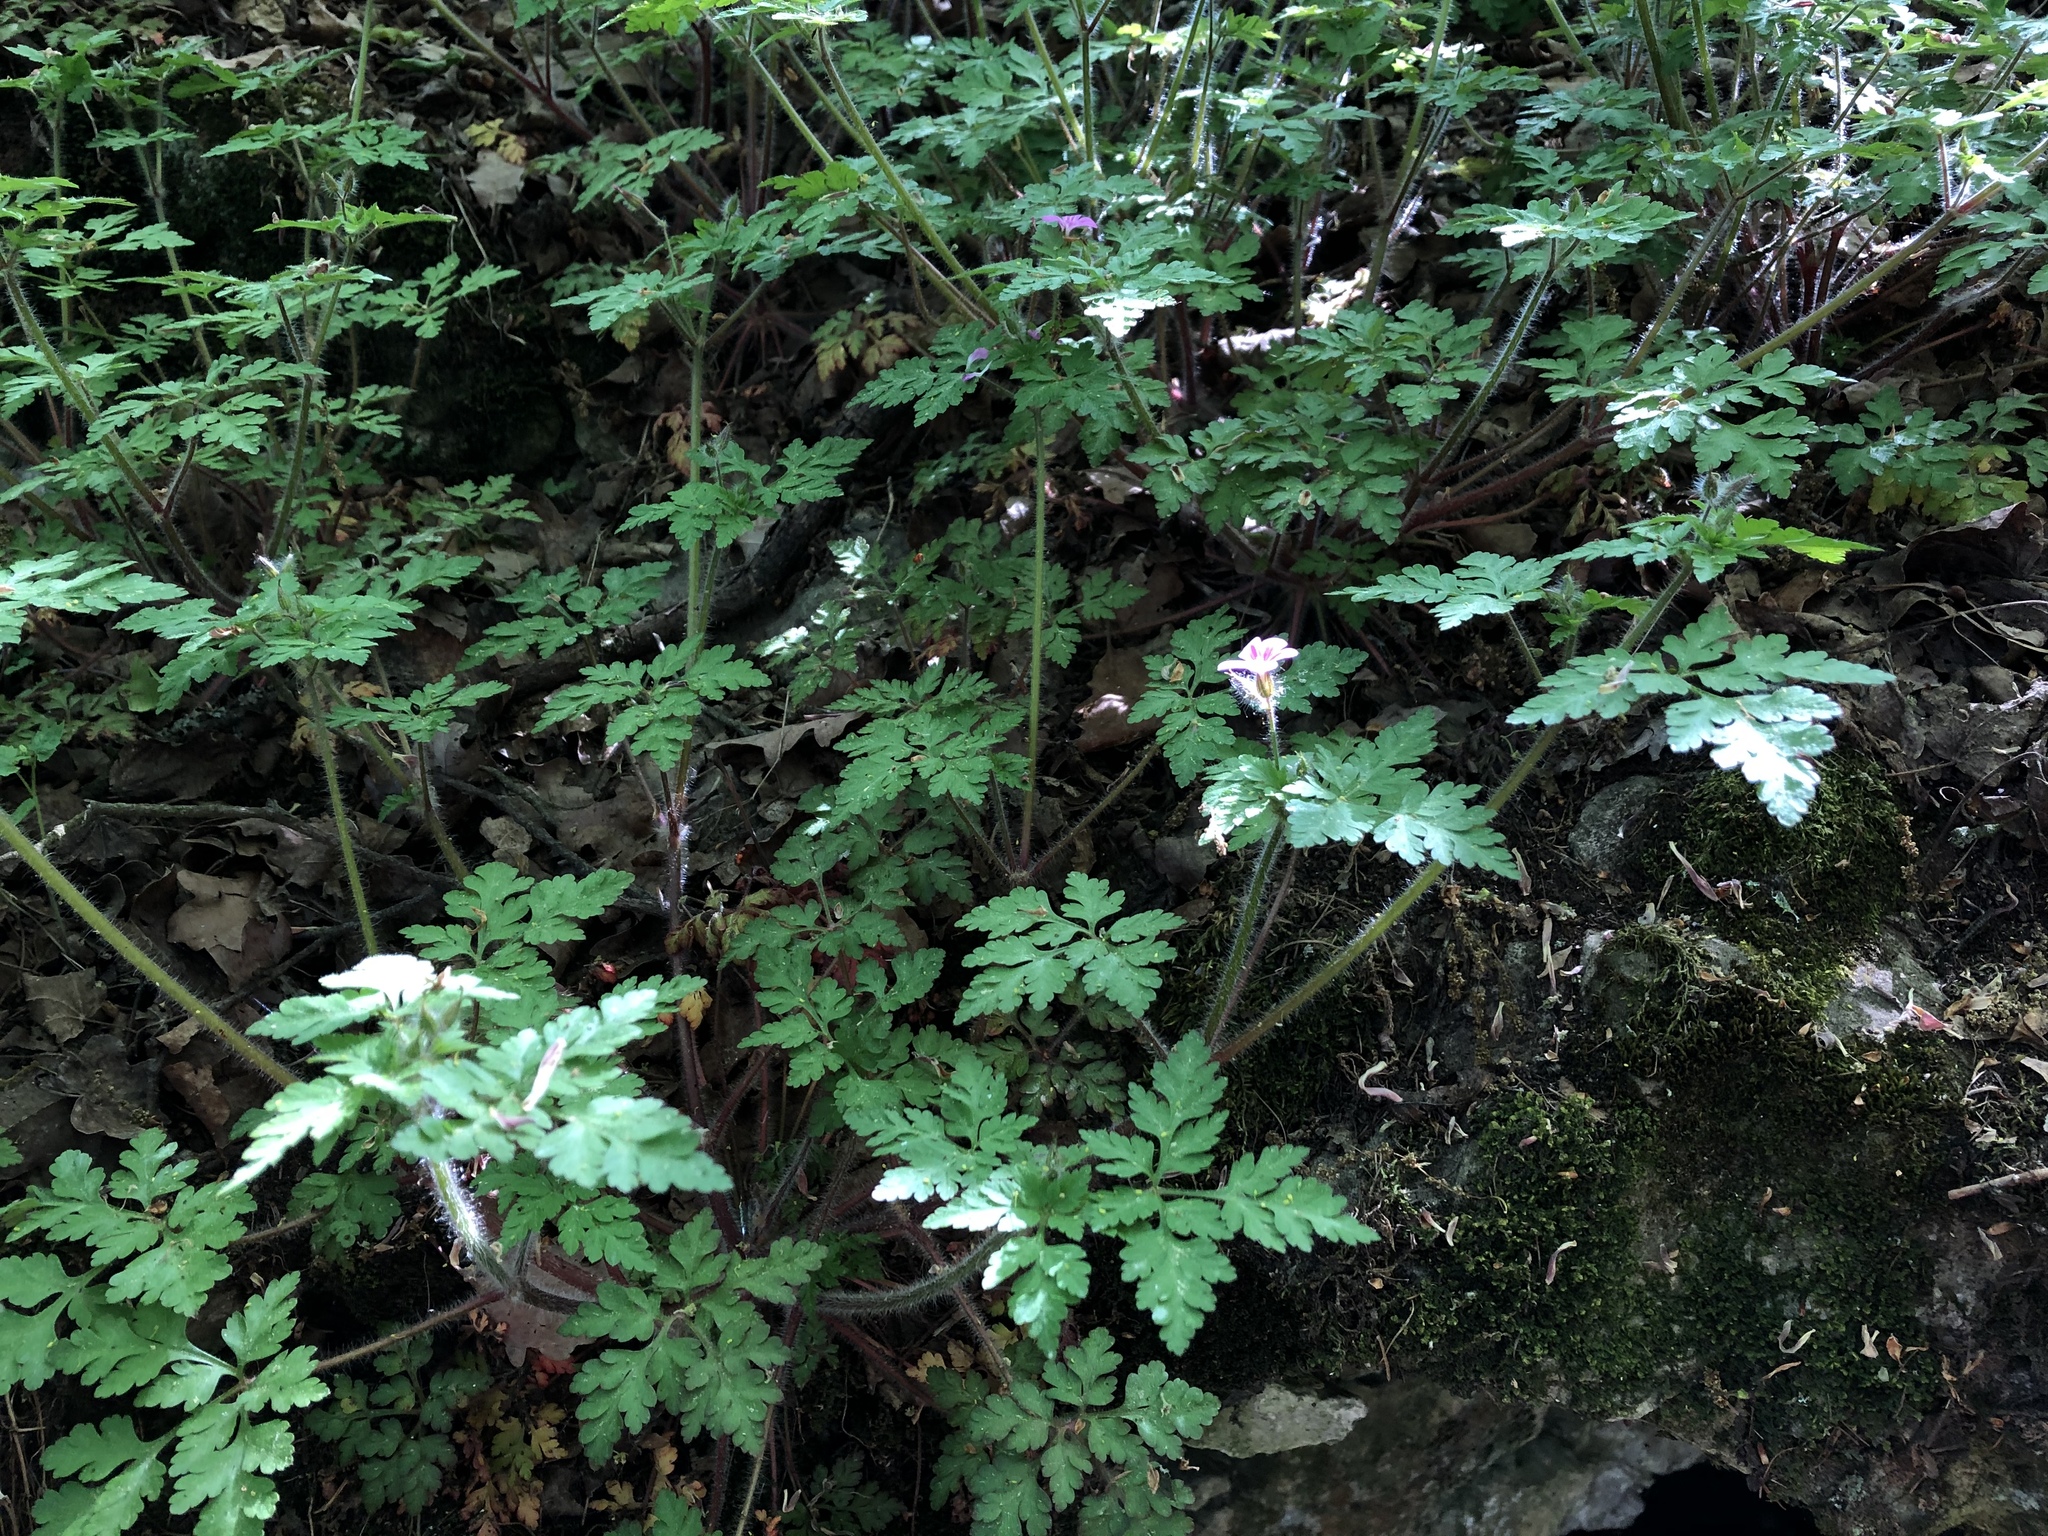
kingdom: Plantae
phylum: Tracheophyta
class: Magnoliopsida
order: Geraniales
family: Geraniaceae
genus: Geranium
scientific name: Geranium robertianum
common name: Herb-robert
